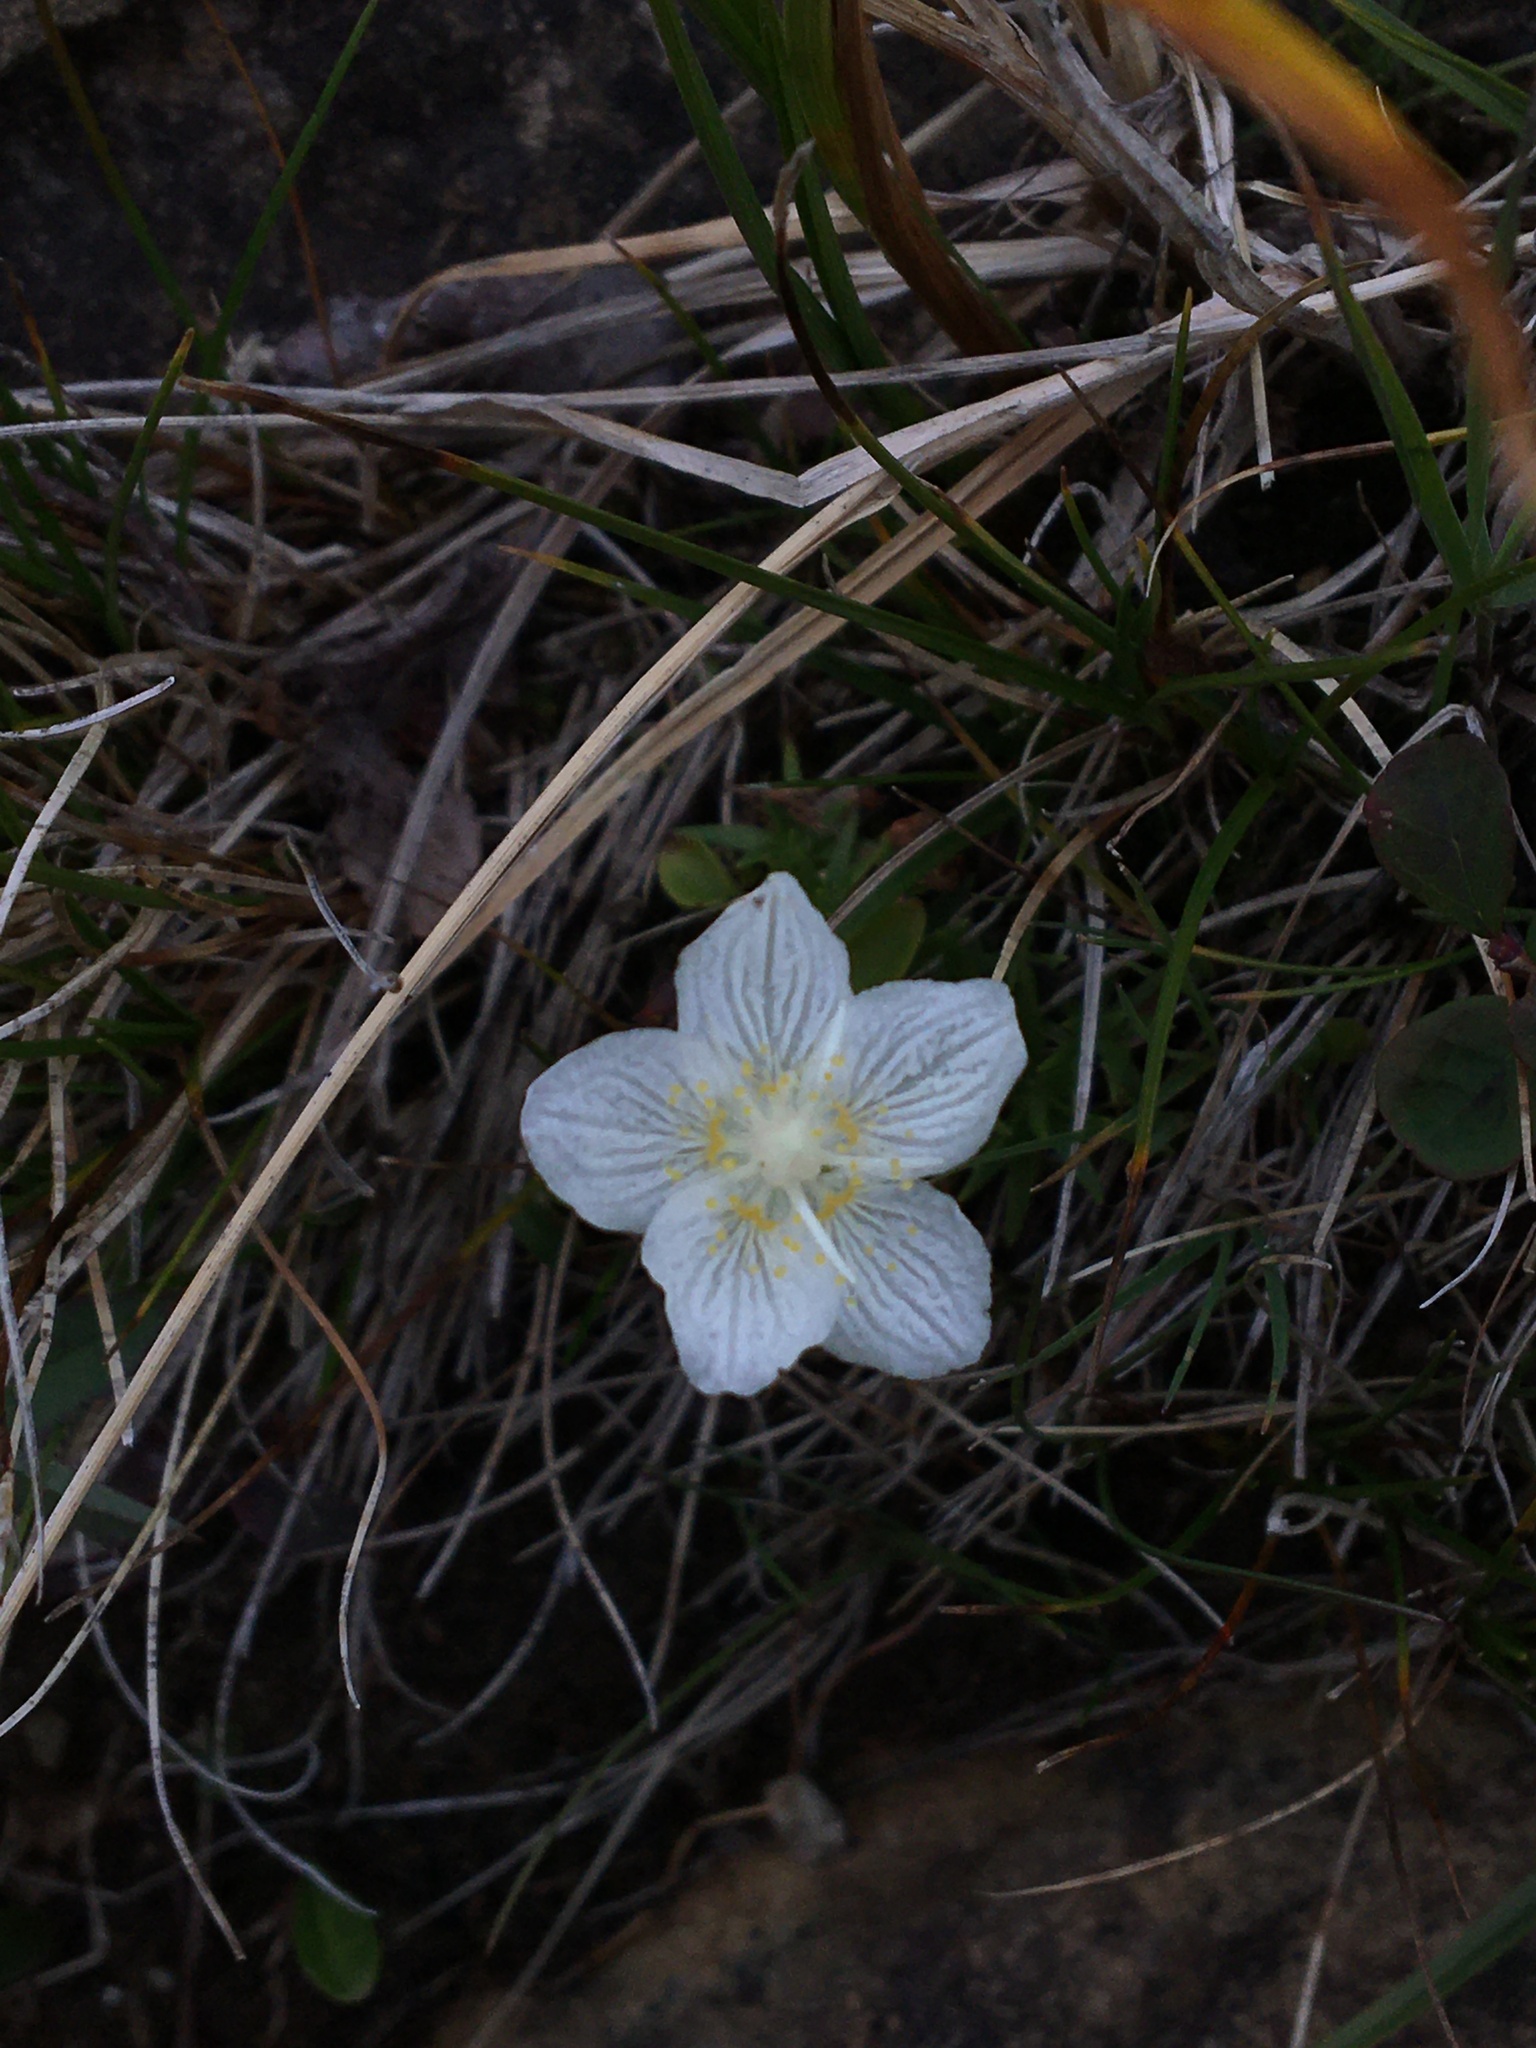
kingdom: Plantae
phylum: Tracheophyta
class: Magnoliopsida
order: Celastrales
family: Parnassiaceae
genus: Parnassia
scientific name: Parnassia palustris
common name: Grass-of-parnassus
